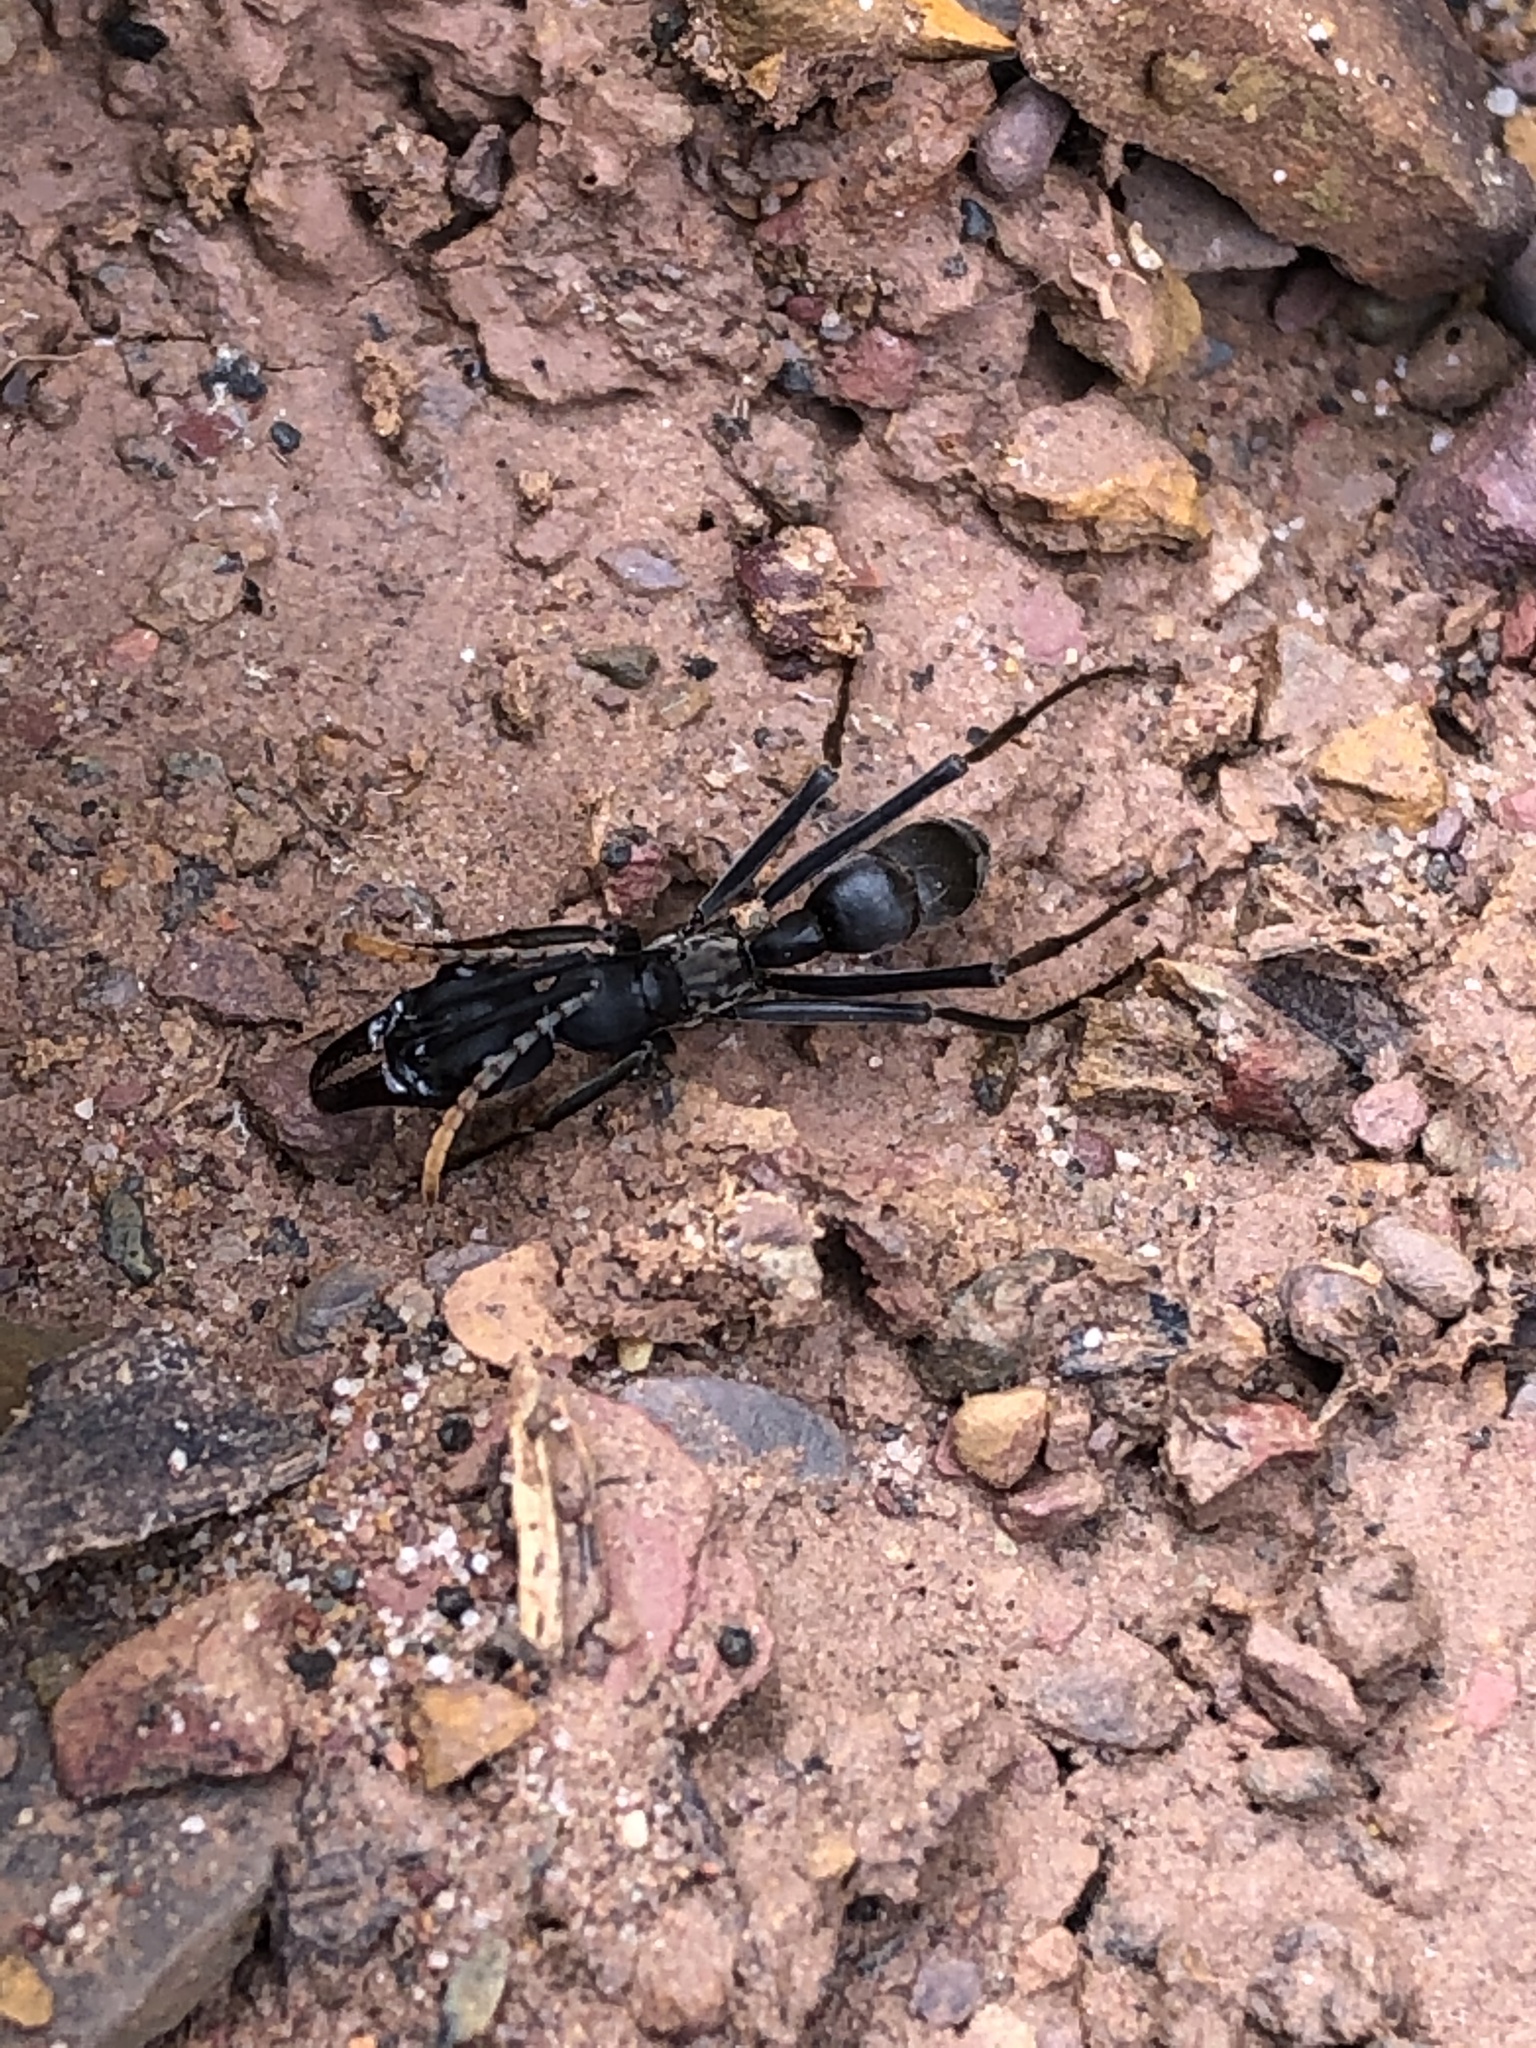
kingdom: Animalia
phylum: Arthropoda
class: Insecta
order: Hymenoptera
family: Formicidae
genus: Pachycondyla
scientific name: Pachycondyla apicalis
